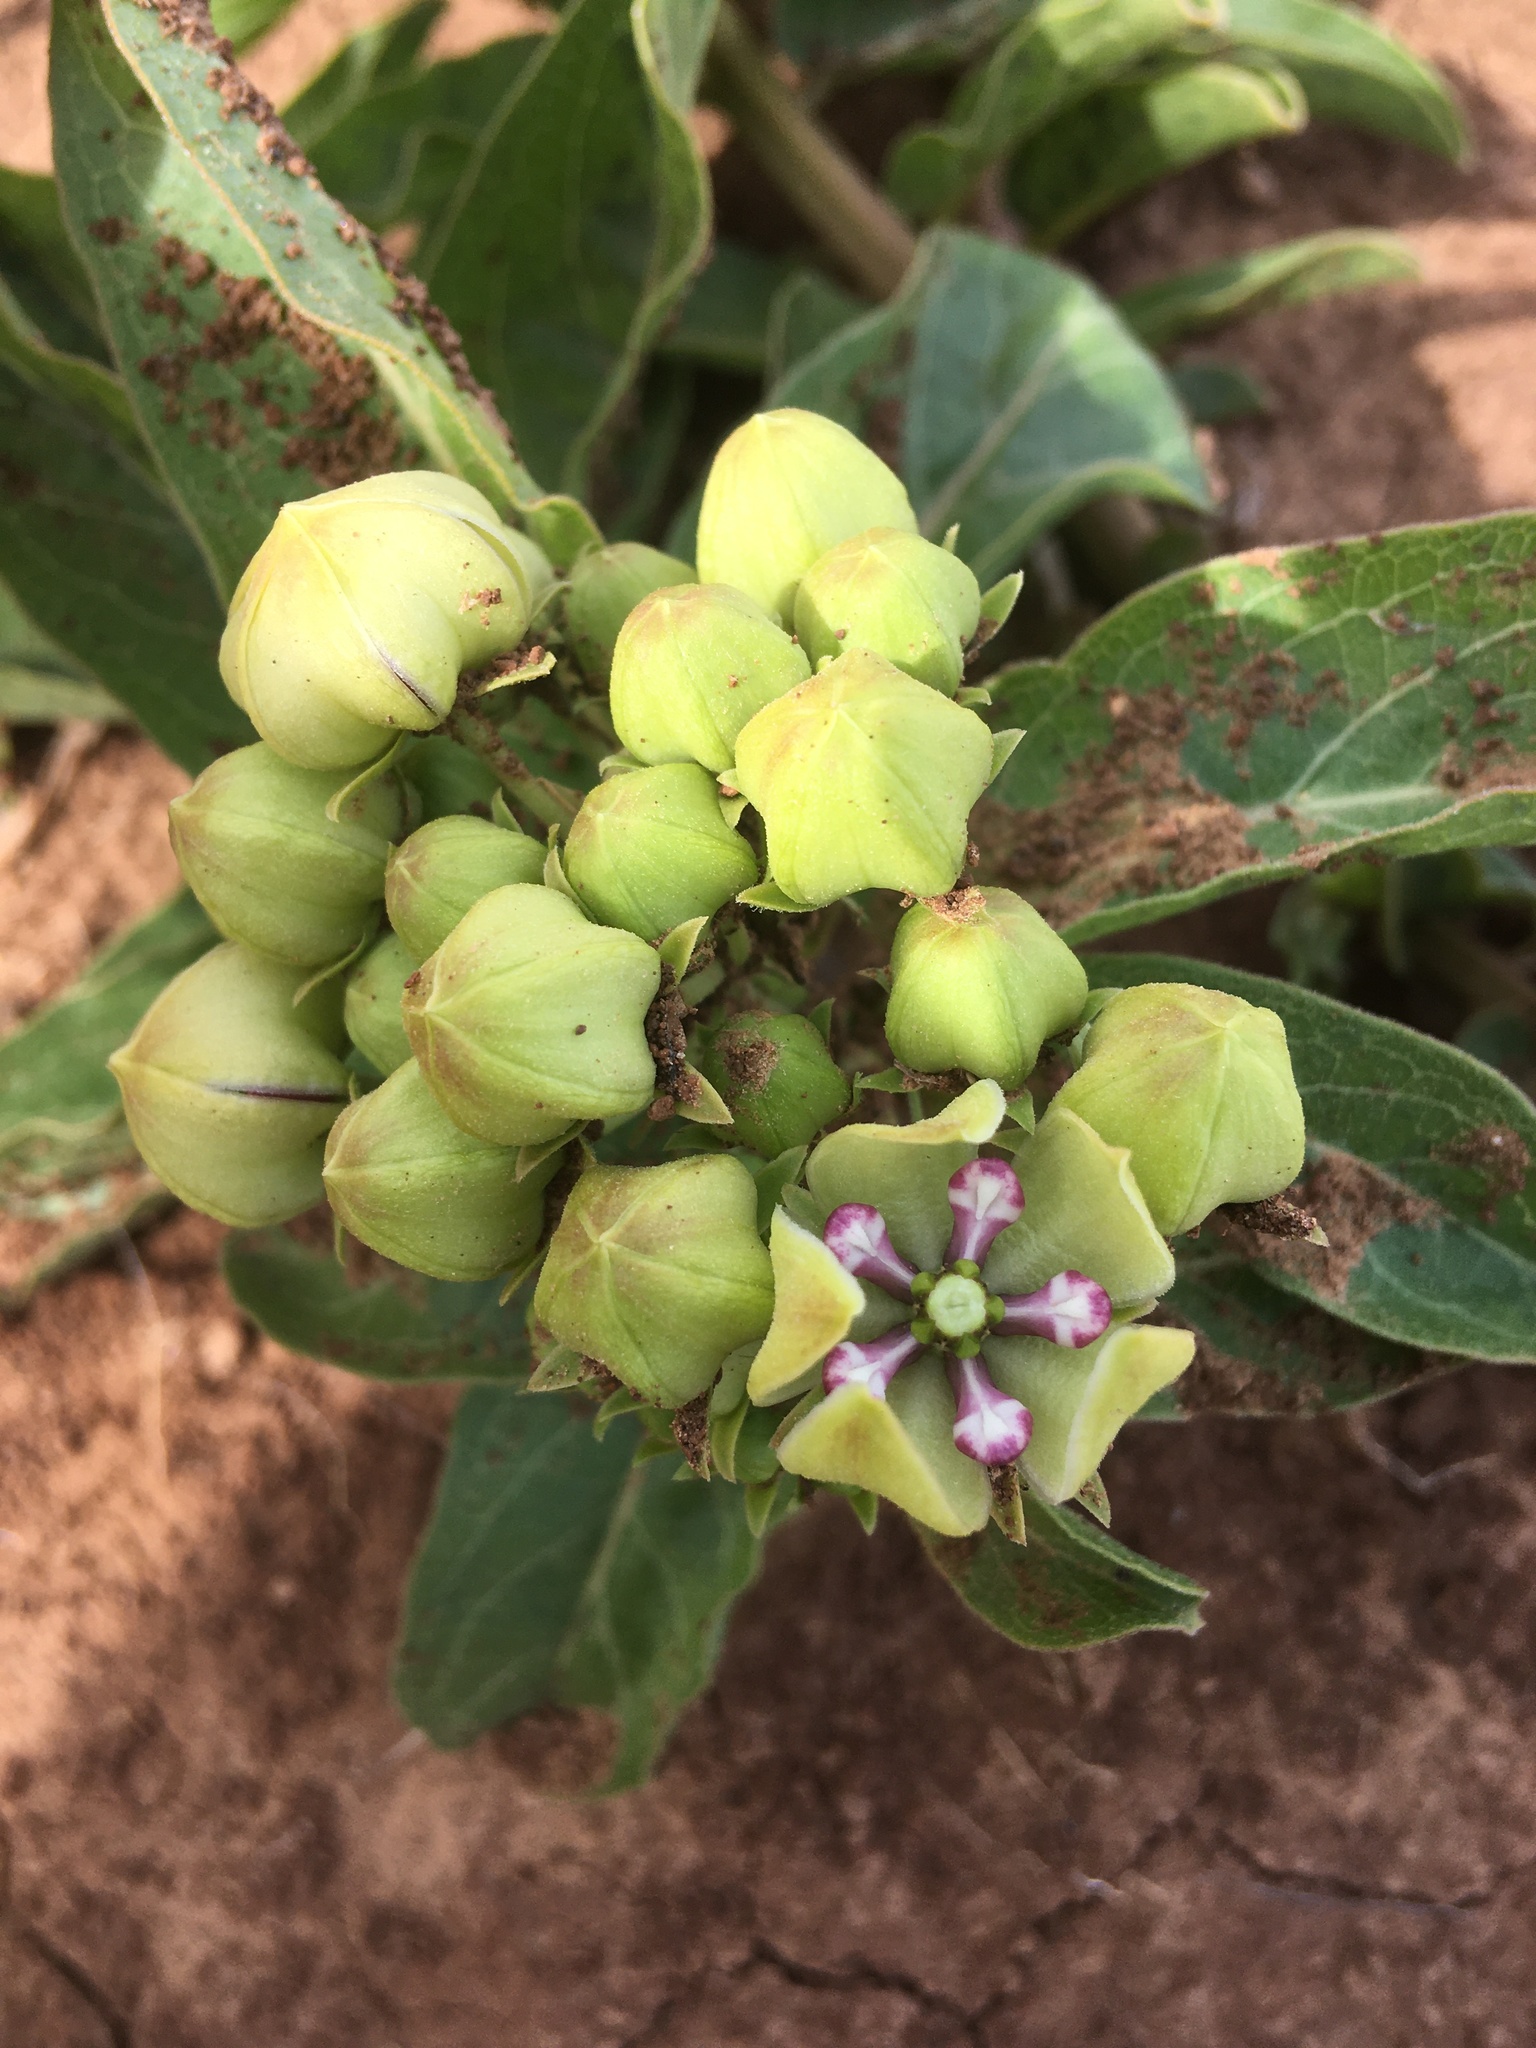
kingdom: Plantae
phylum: Tracheophyta
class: Magnoliopsida
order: Gentianales
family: Apocynaceae
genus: Asclepias
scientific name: Asclepias viridis
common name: Antelope-horns
